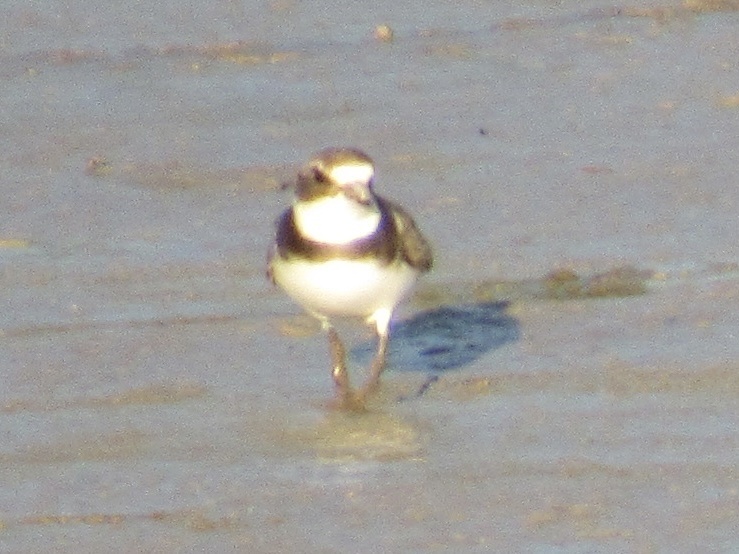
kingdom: Animalia
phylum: Chordata
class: Aves
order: Charadriiformes
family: Charadriidae
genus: Charadrius
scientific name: Charadrius semipalmatus
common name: Semipalmated plover
